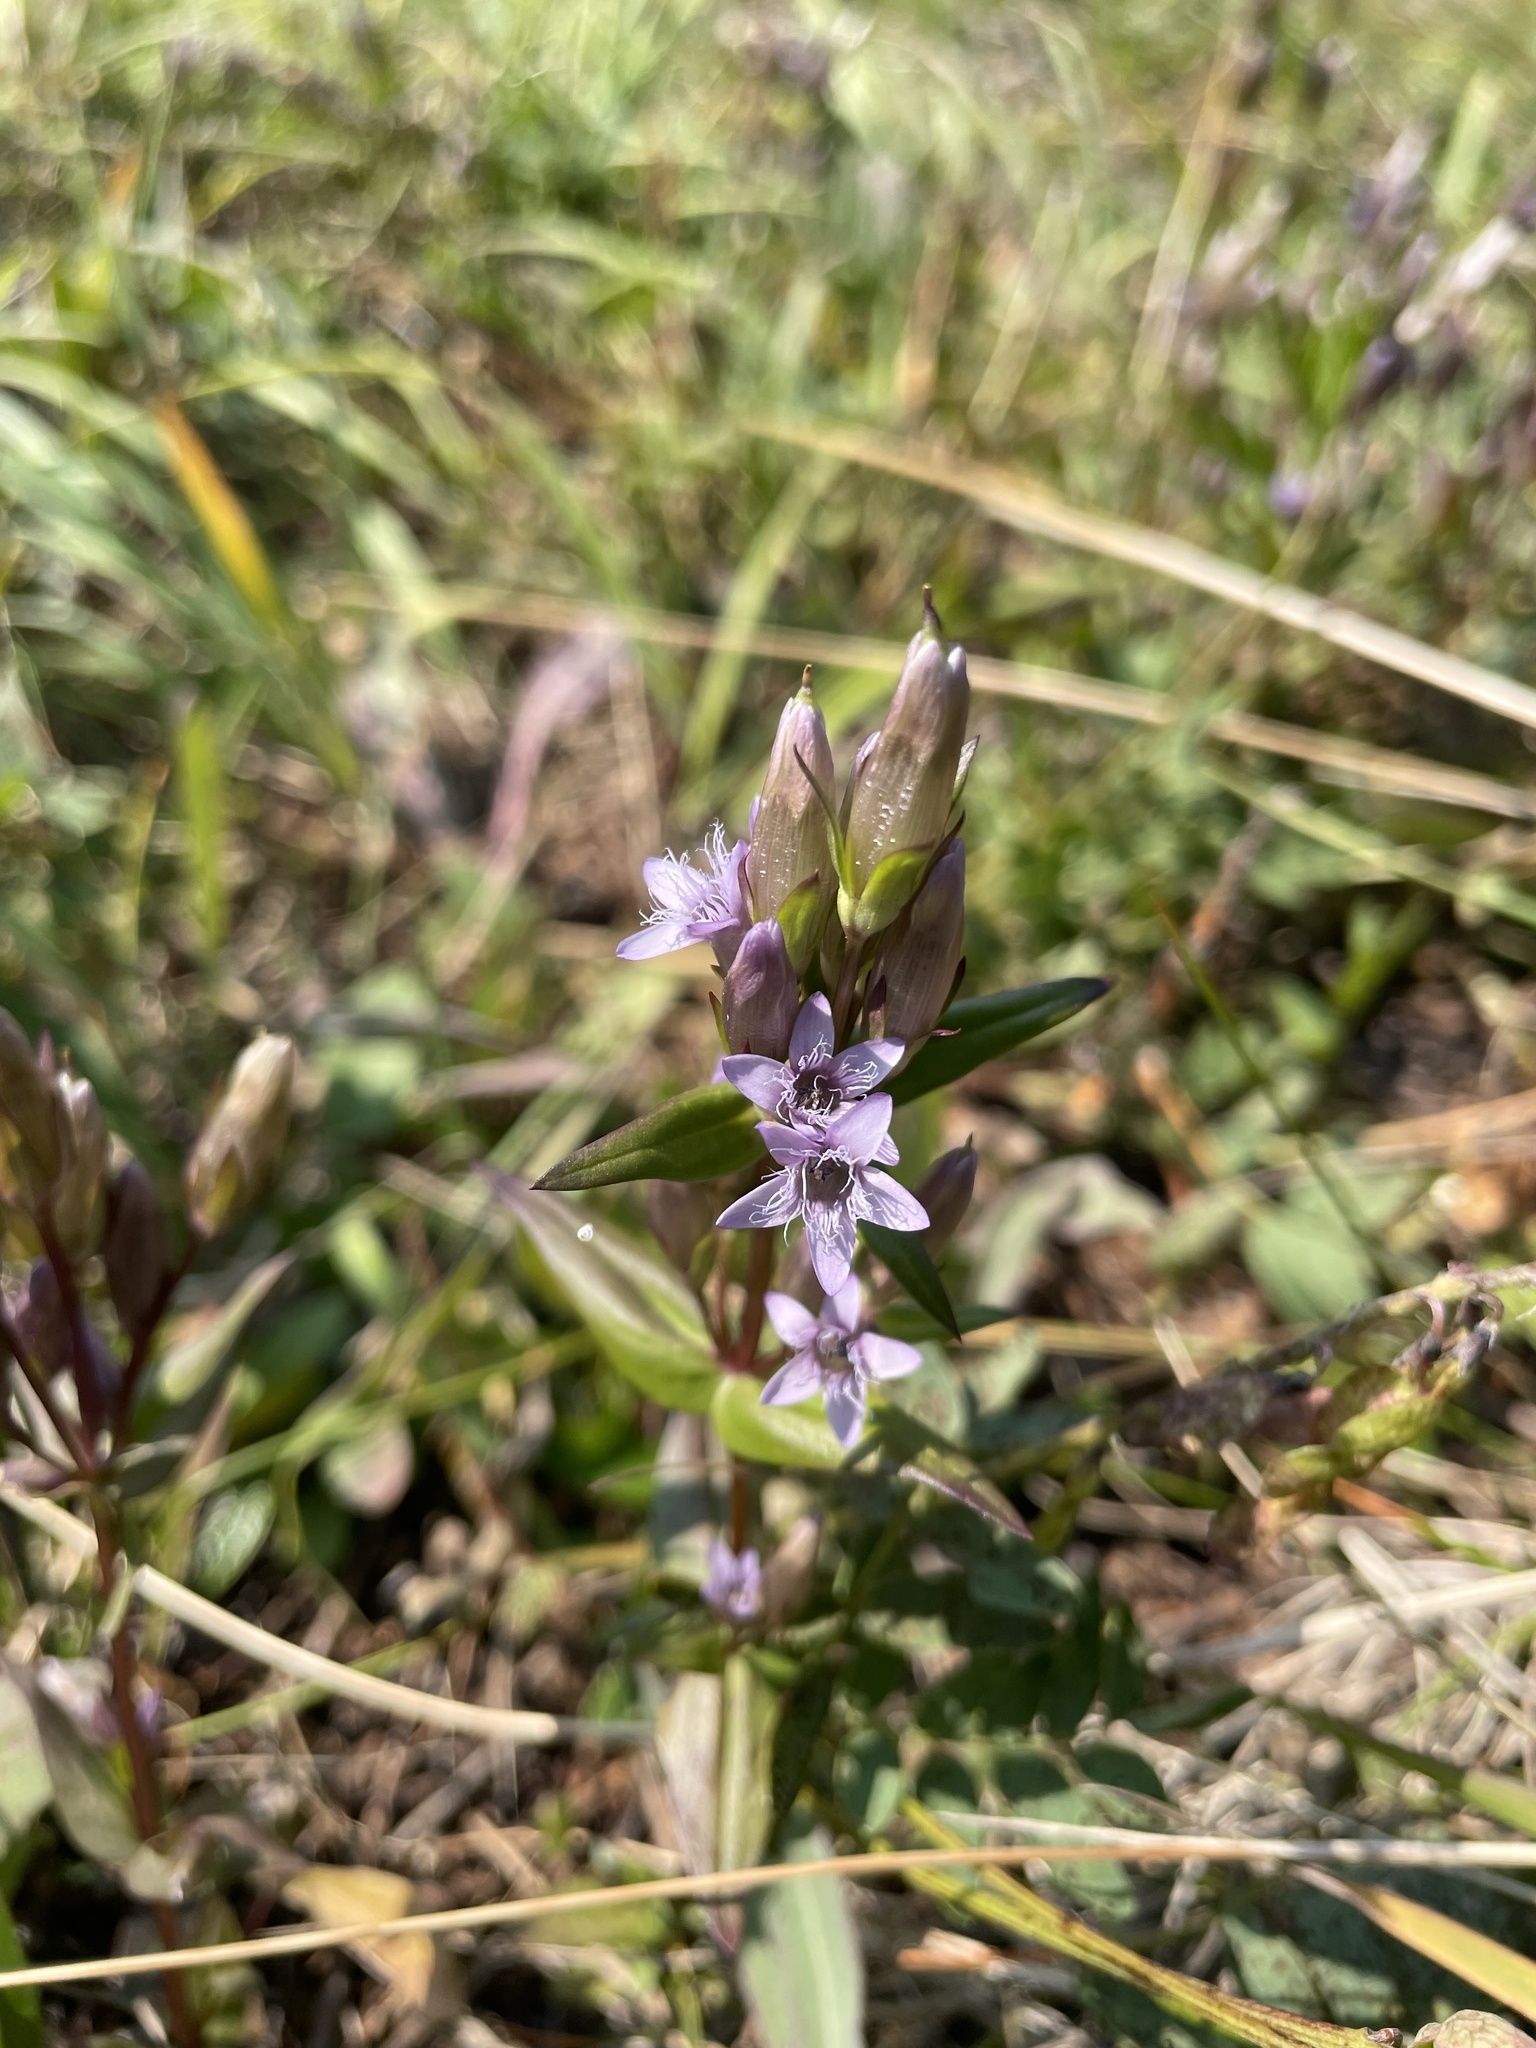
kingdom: Plantae
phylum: Tracheophyta
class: Magnoliopsida
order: Gentianales
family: Gentianaceae
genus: Gentianella
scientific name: Gentianella amarella
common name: Autumn gentian
